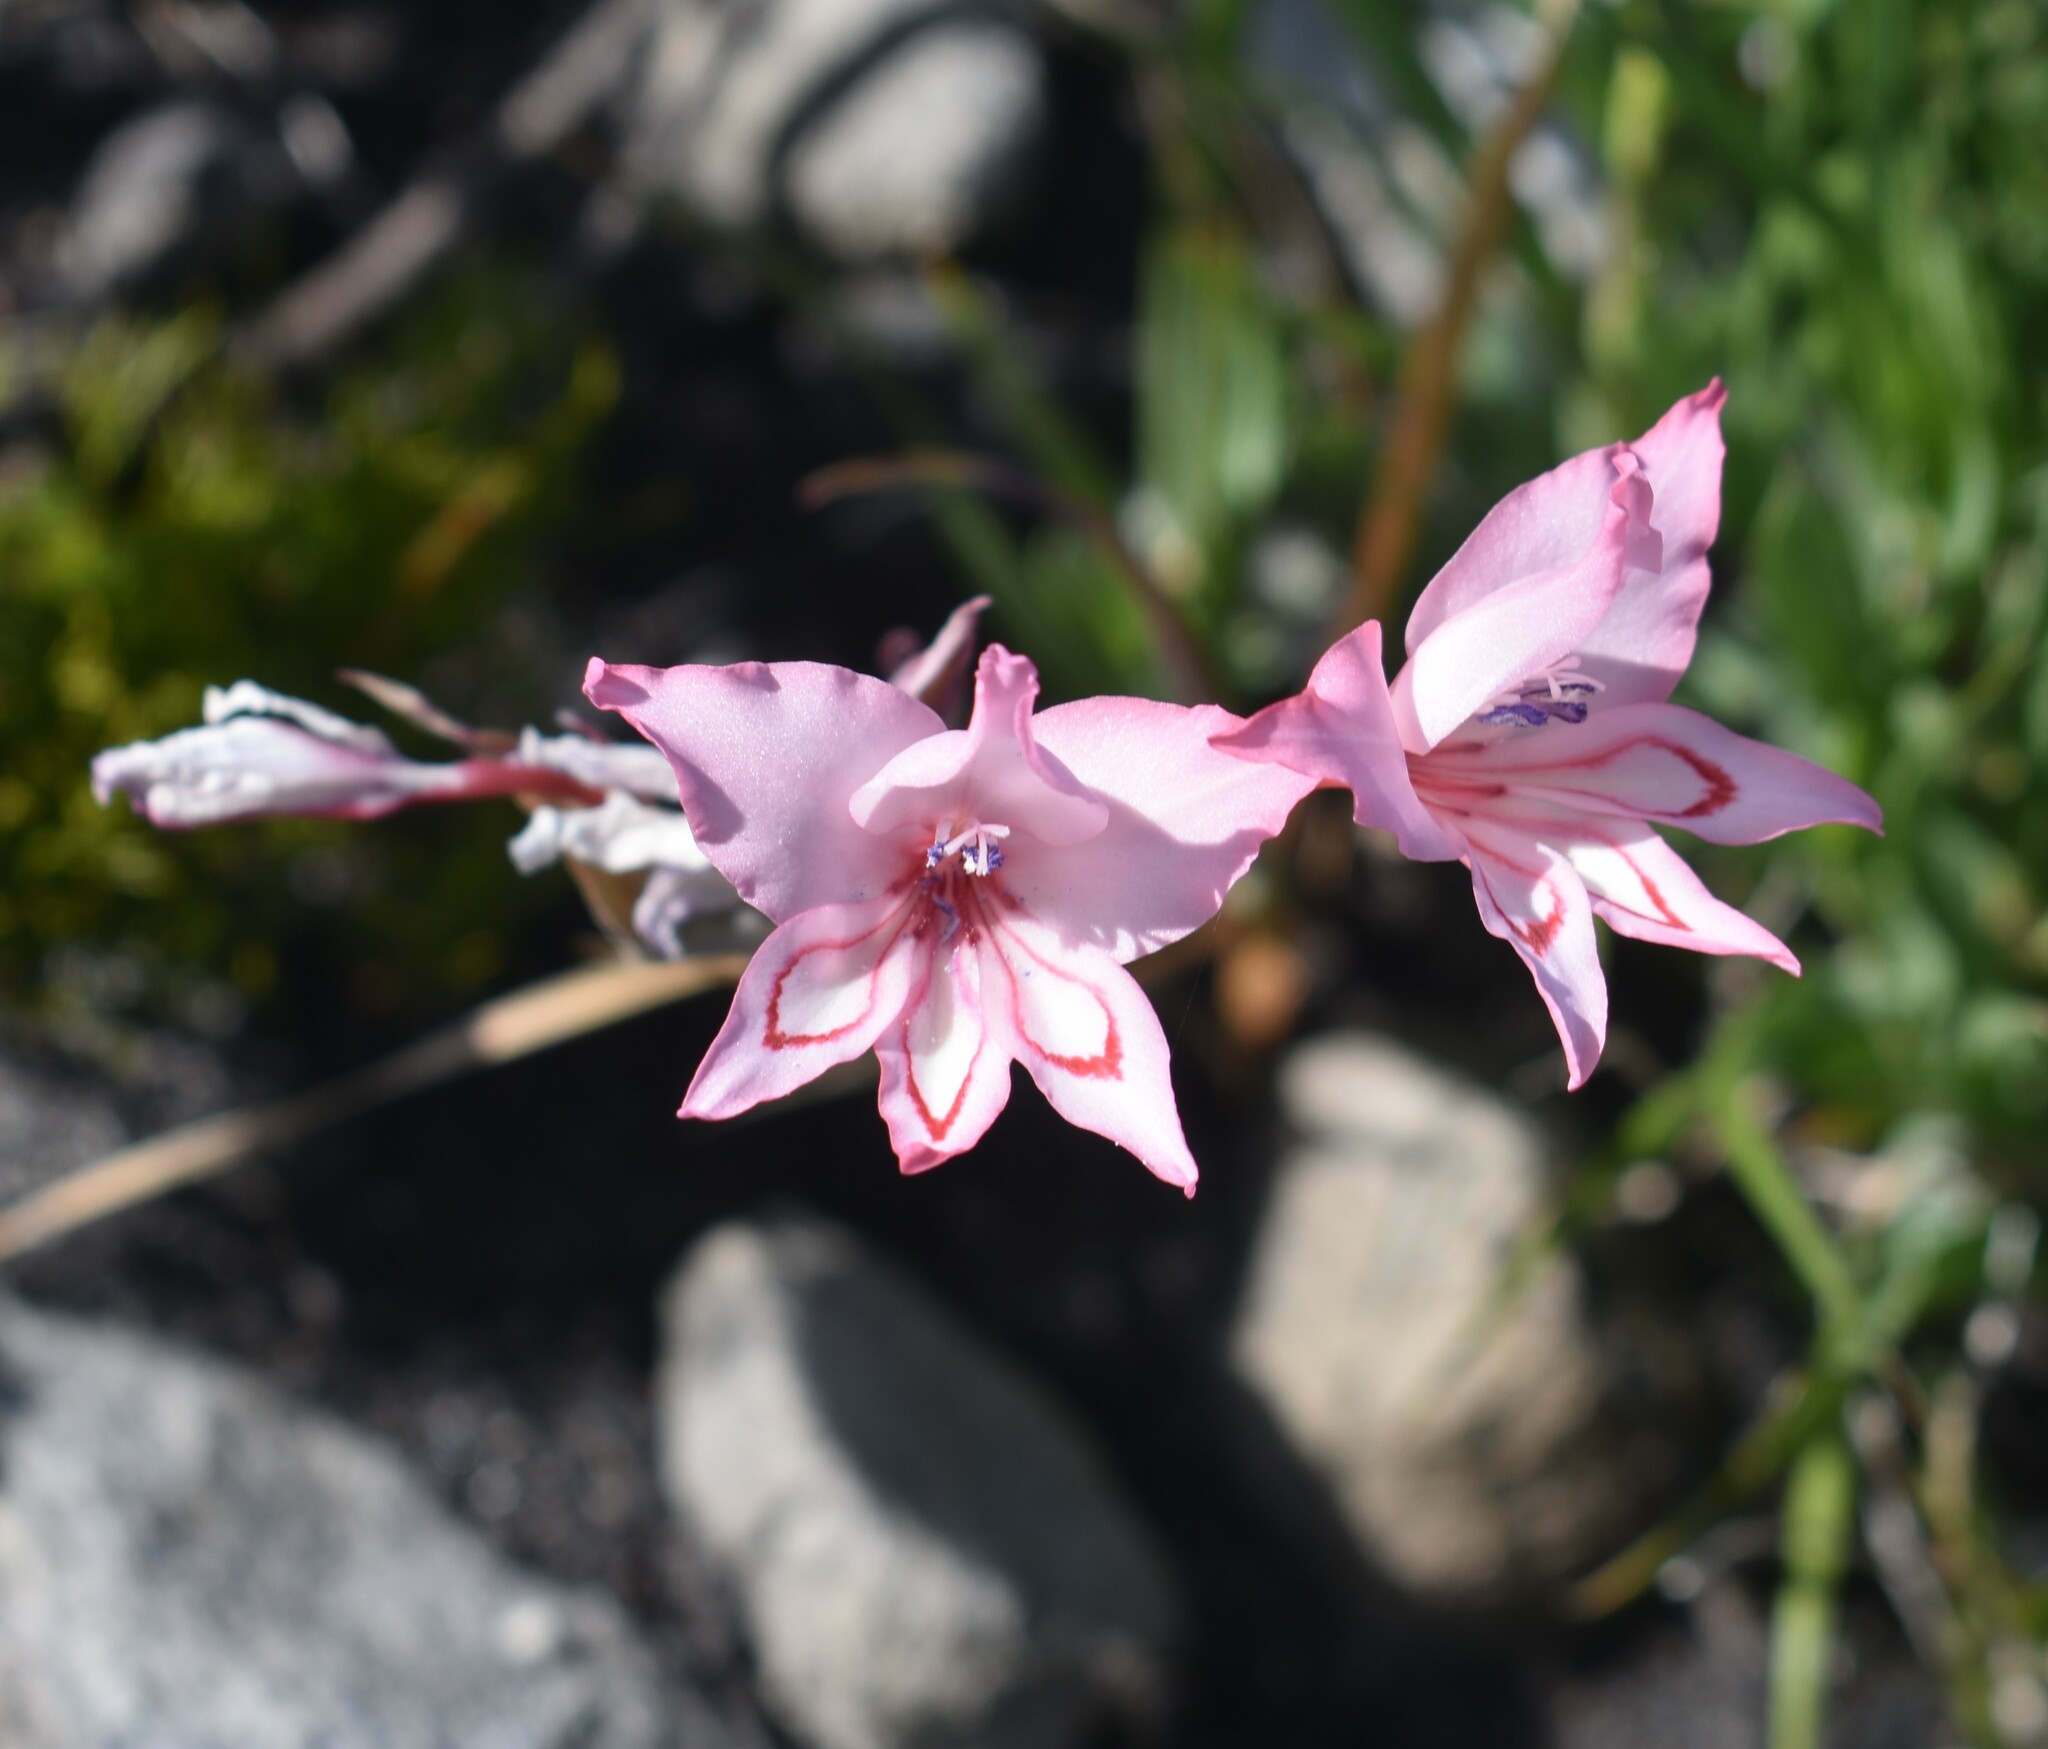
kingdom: Plantae
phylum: Tracheophyta
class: Liliopsida
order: Asparagales
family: Iridaceae
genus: Gladiolus
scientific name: Gladiolus carneus
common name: Painted-lady
